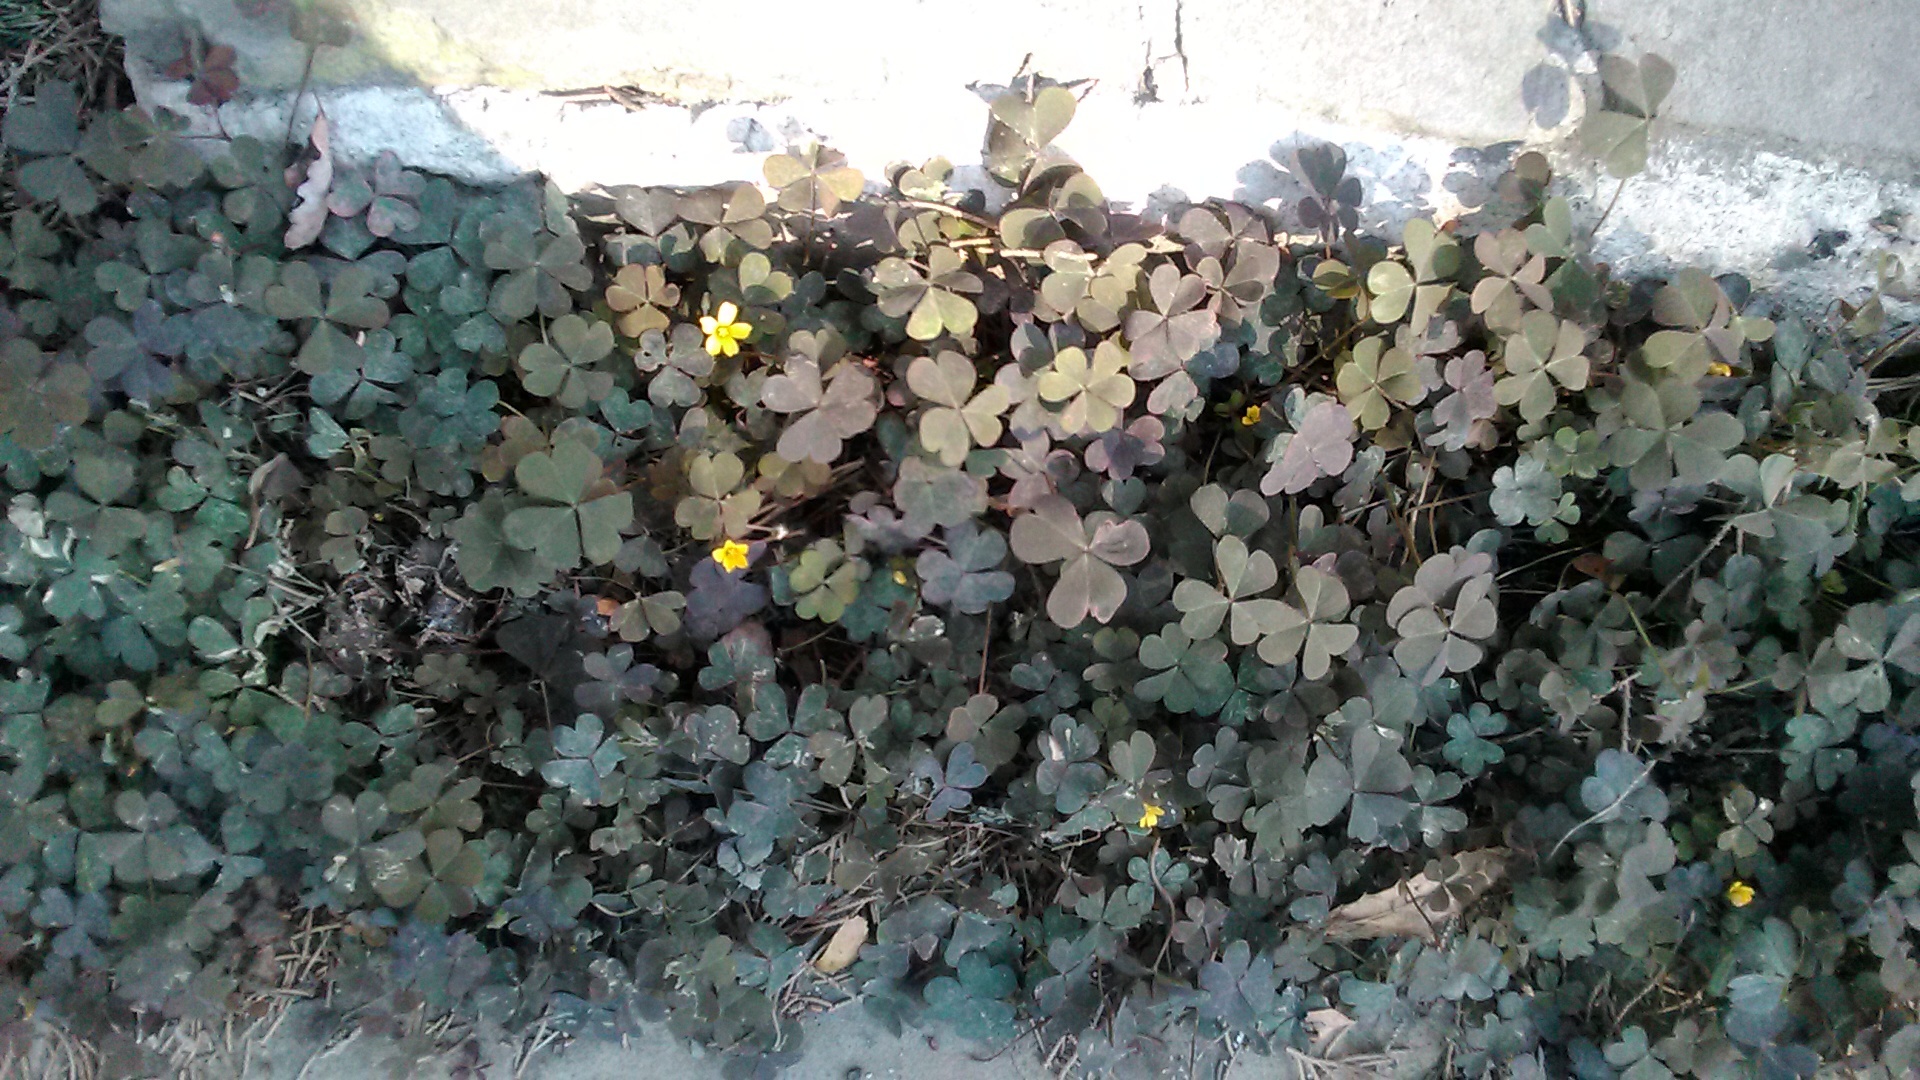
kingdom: Plantae
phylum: Tracheophyta
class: Magnoliopsida
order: Oxalidales
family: Oxalidaceae
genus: Oxalis
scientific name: Oxalis corniculata
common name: Procumbent yellow-sorrel
